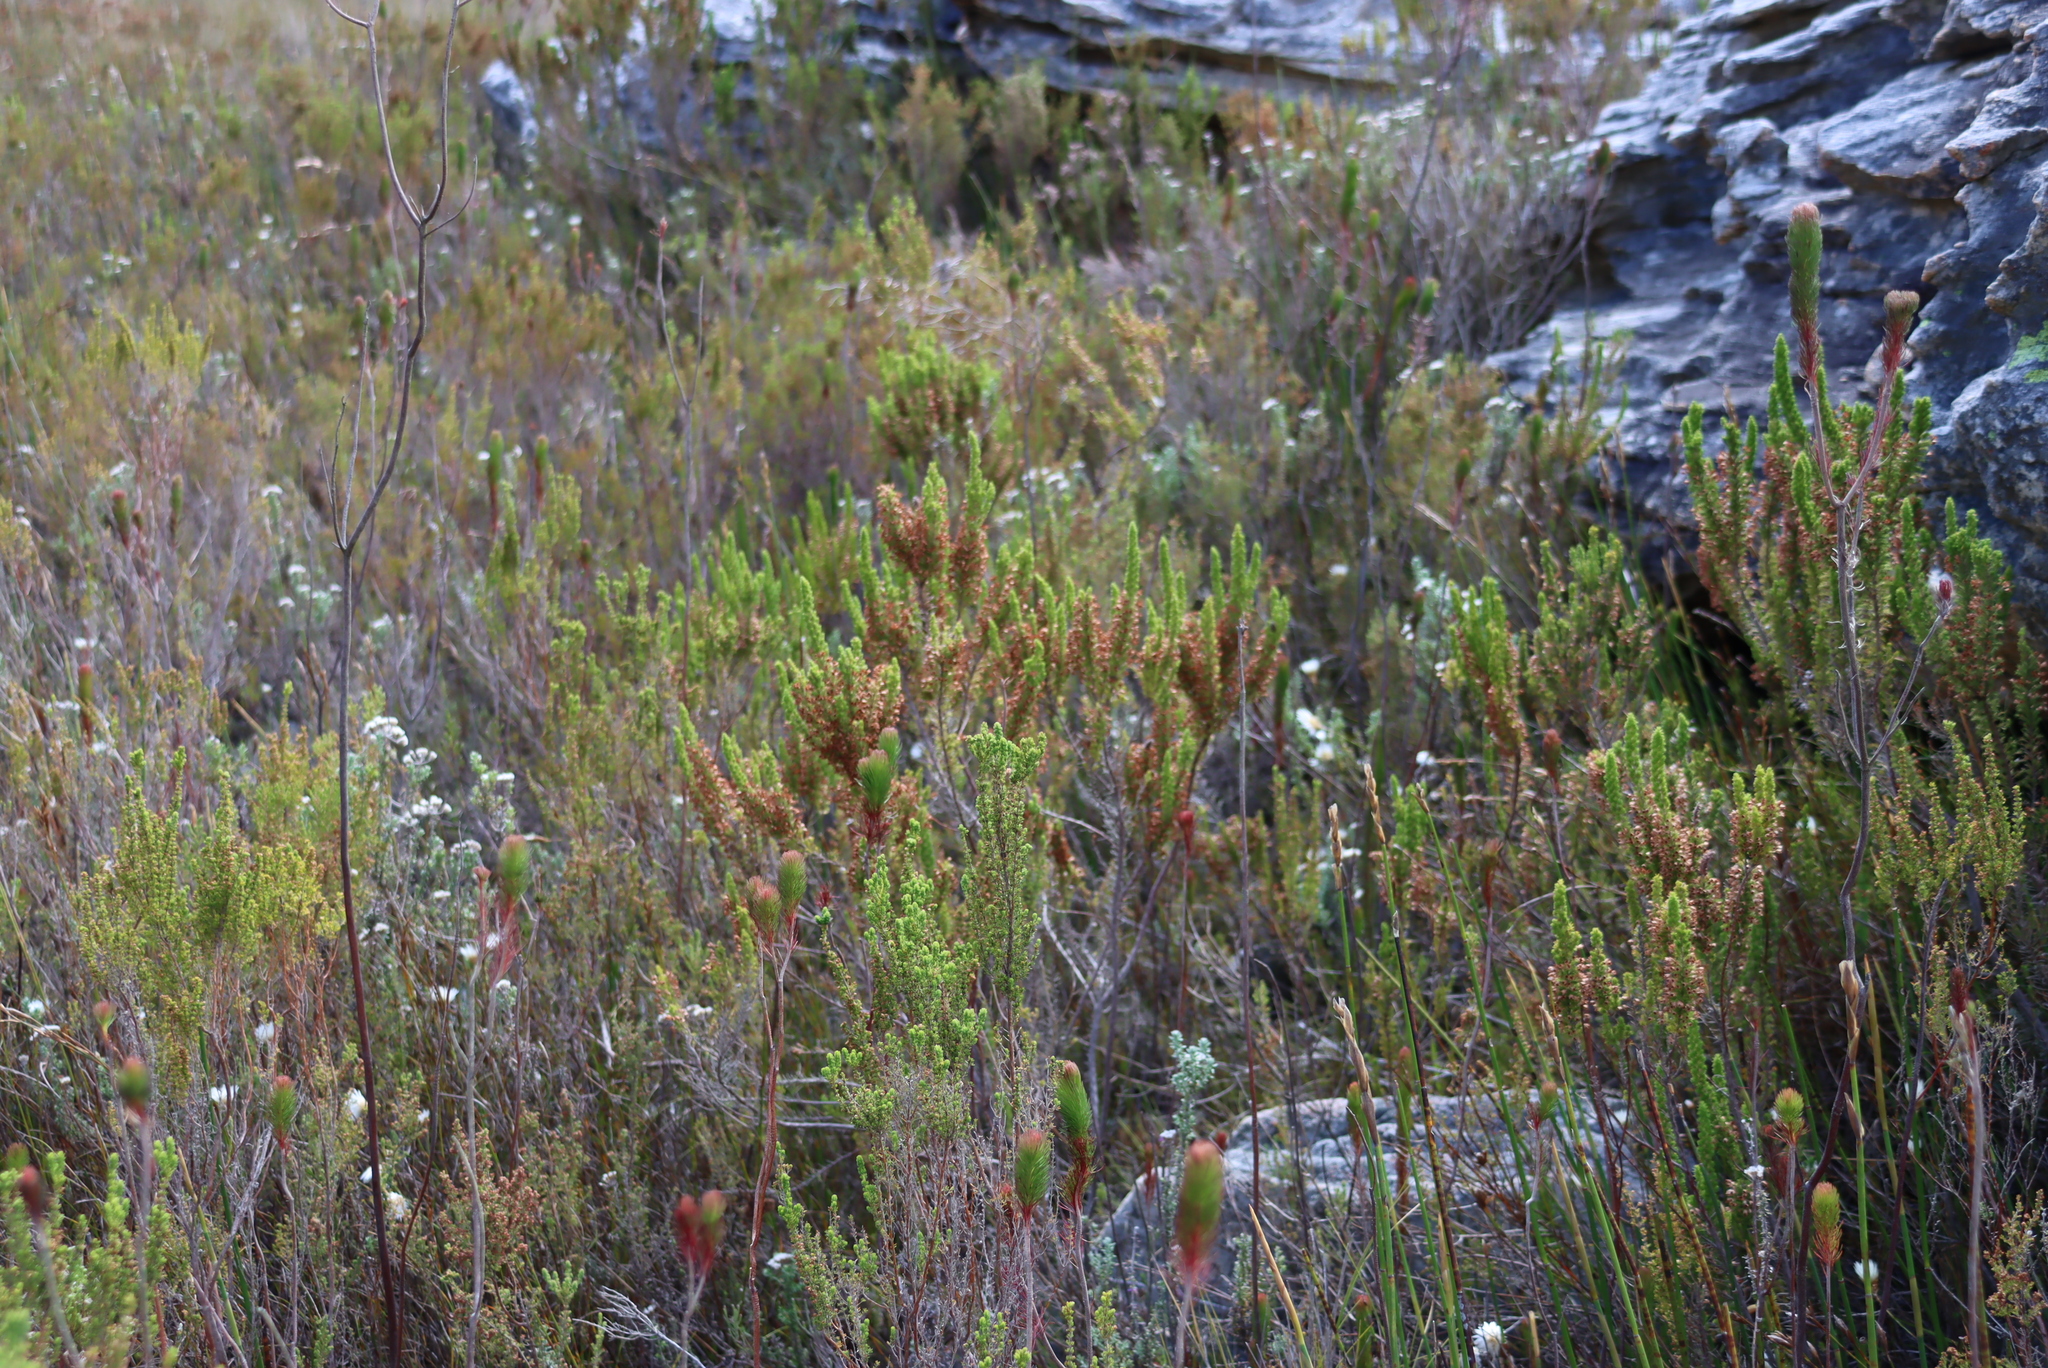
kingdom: Plantae
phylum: Tracheophyta
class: Magnoliopsida
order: Ericales
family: Ericaceae
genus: Erica
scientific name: Erica penicilliformis
